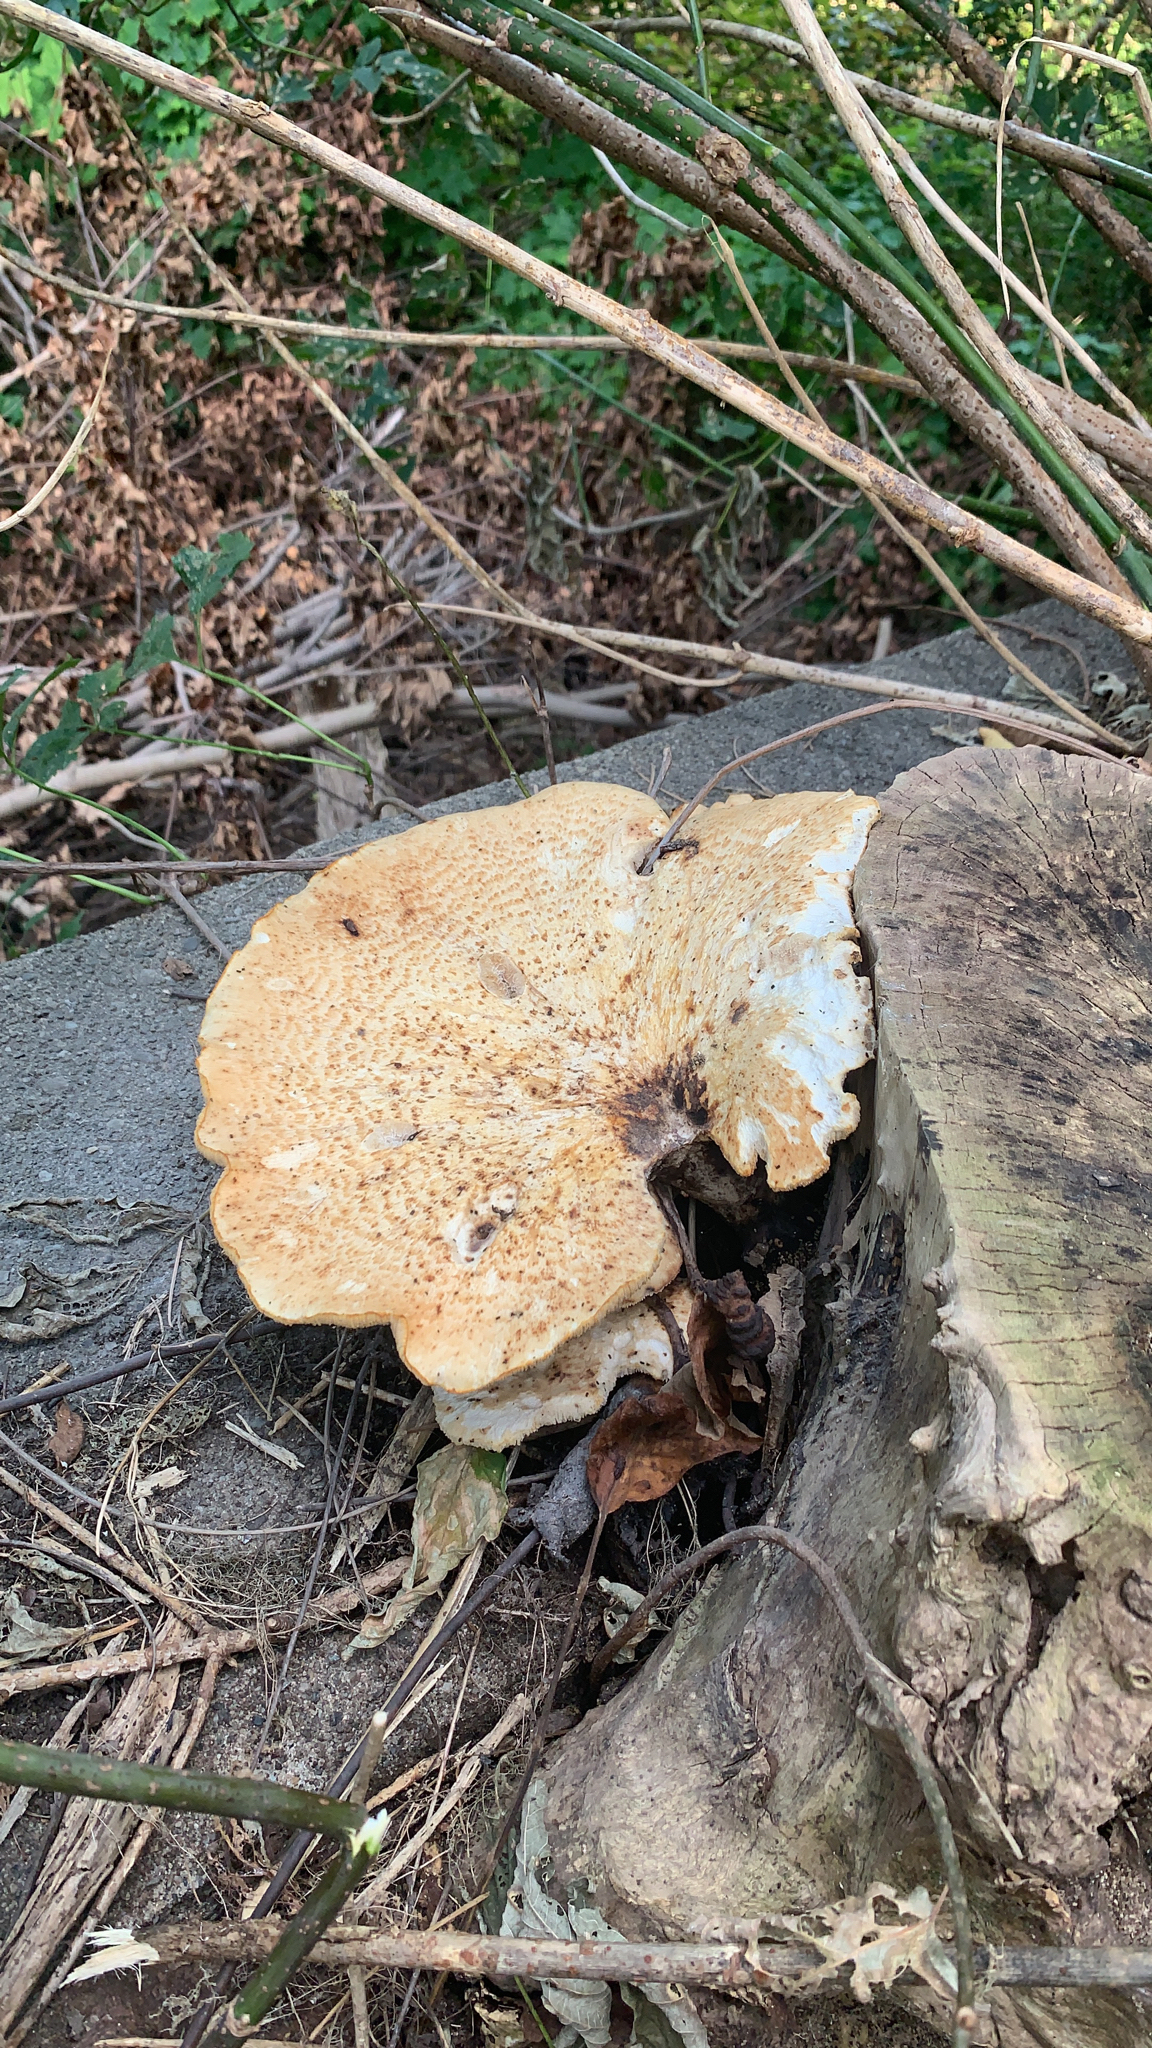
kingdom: Fungi
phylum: Basidiomycota
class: Agaricomycetes
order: Polyporales
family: Polyporaceae
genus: Cerioporus
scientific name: Cerioporus squamosus
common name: Dryad's saddle
